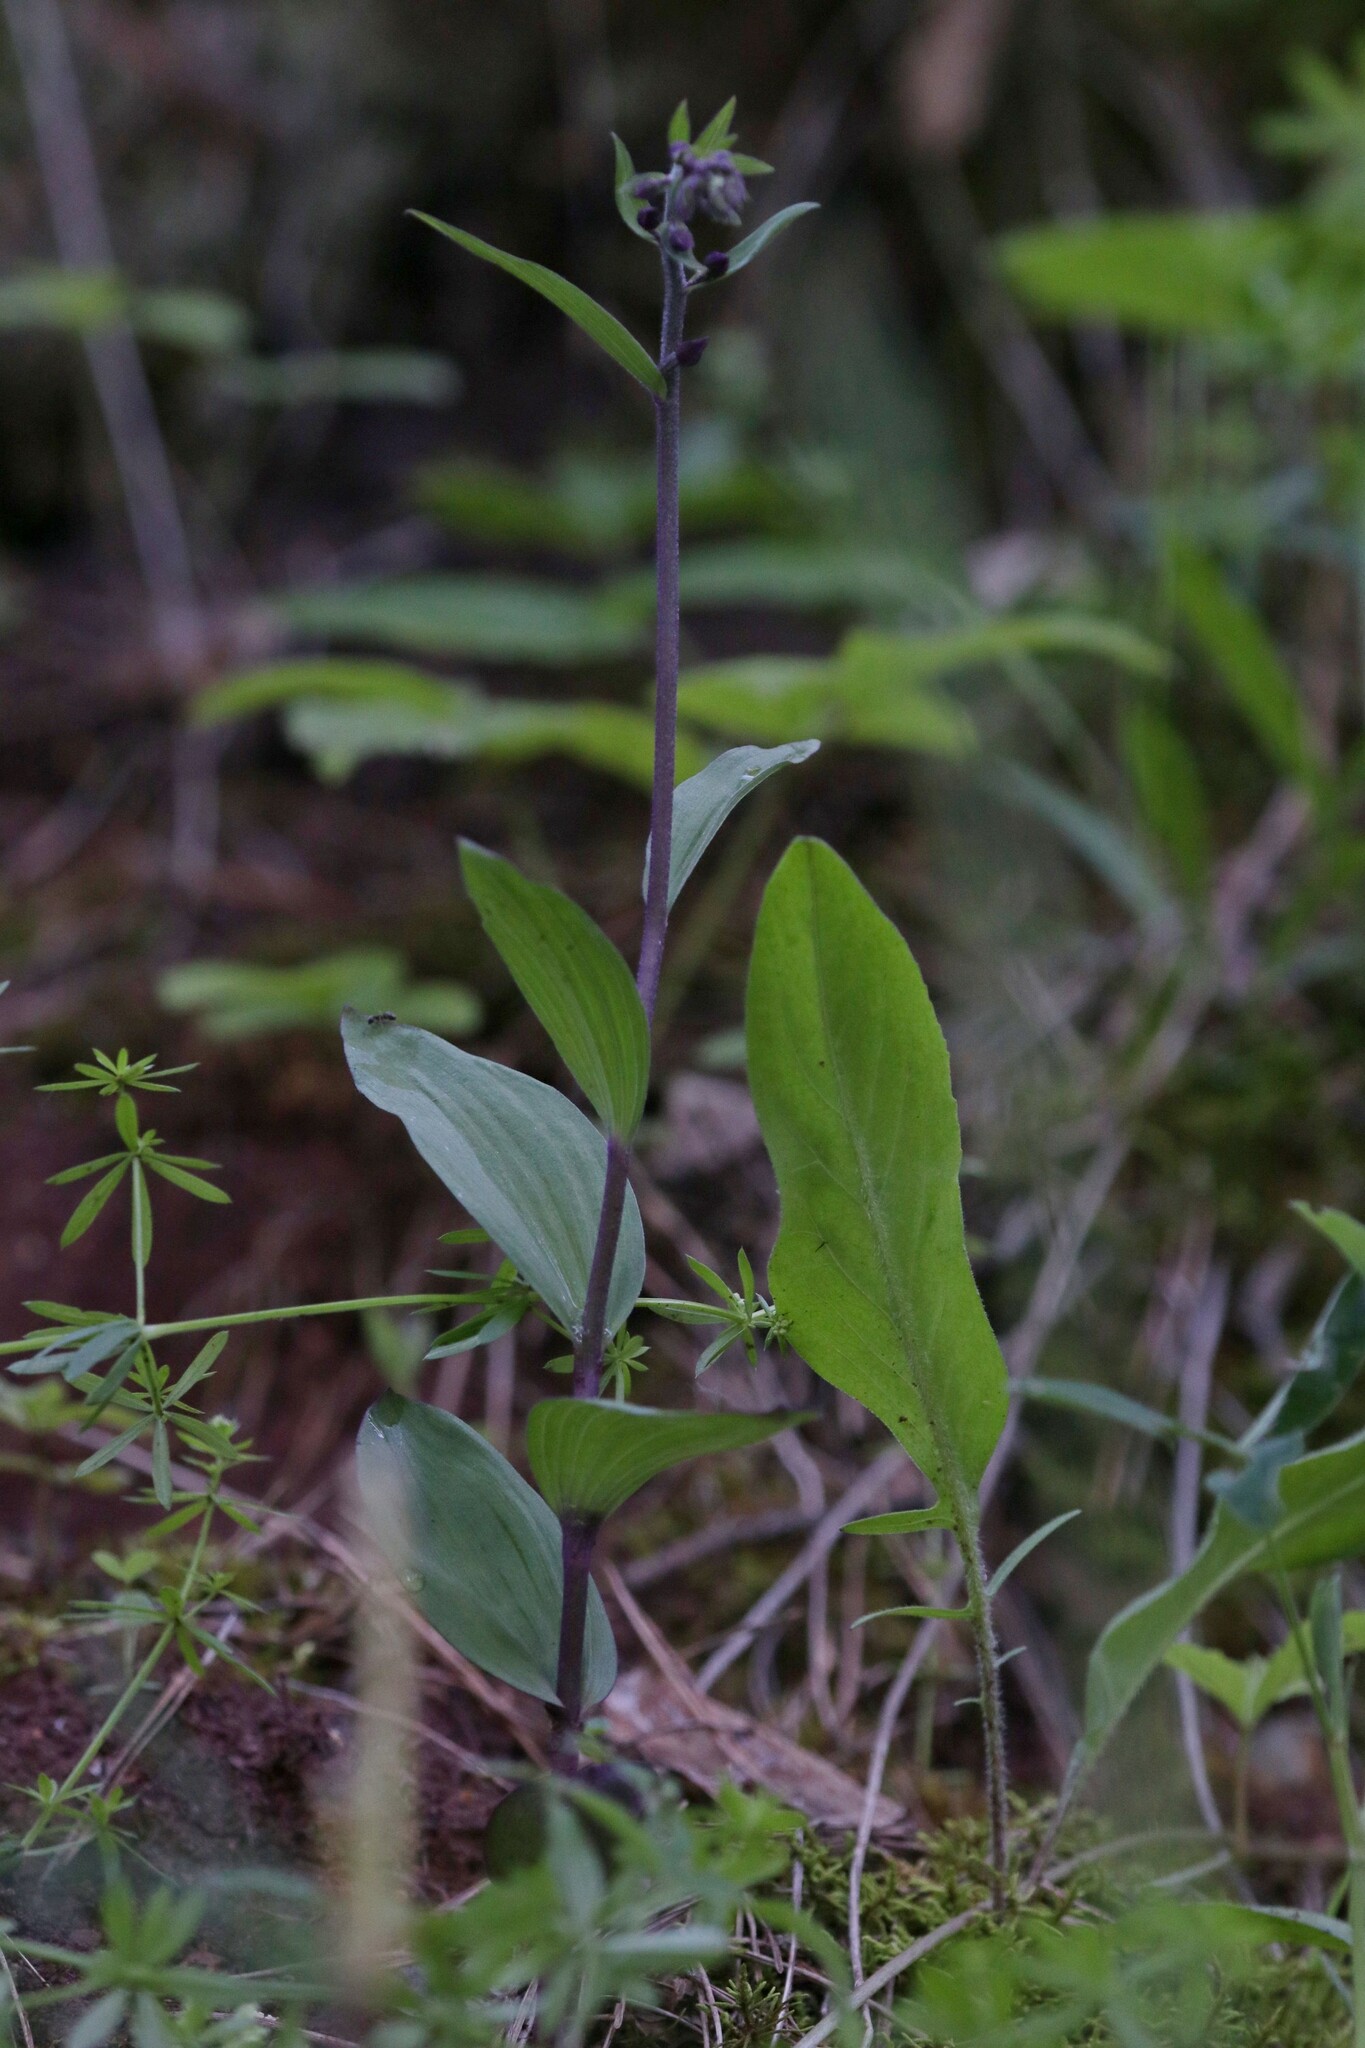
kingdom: Plantae
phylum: Tracheophyta
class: Liliopsida
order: Asparagales
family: Orchidaceae
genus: Epipactis
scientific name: Epipactis atrorubens
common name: Dark-red helleborine
